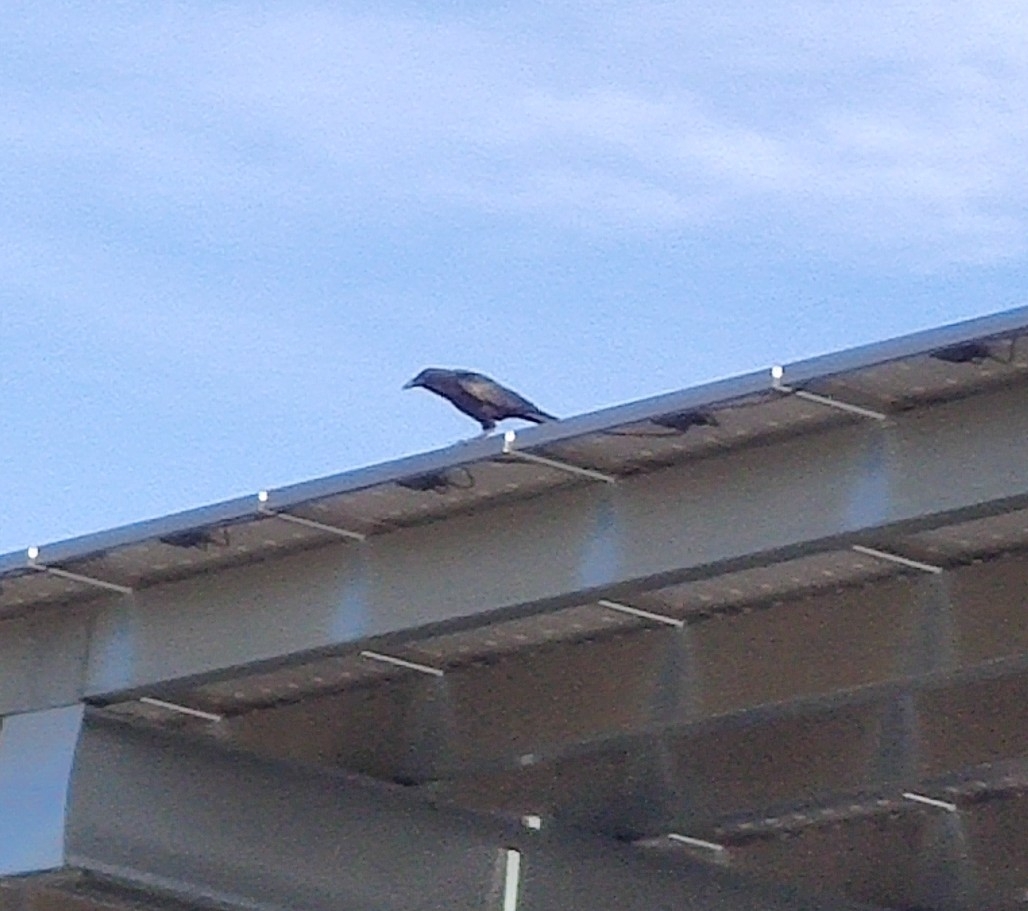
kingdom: Animalia
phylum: Chordata
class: Aves
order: Passeriformes
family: Corvidae
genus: Corvus
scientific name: Corvus brachyrhynchos
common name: American crow
